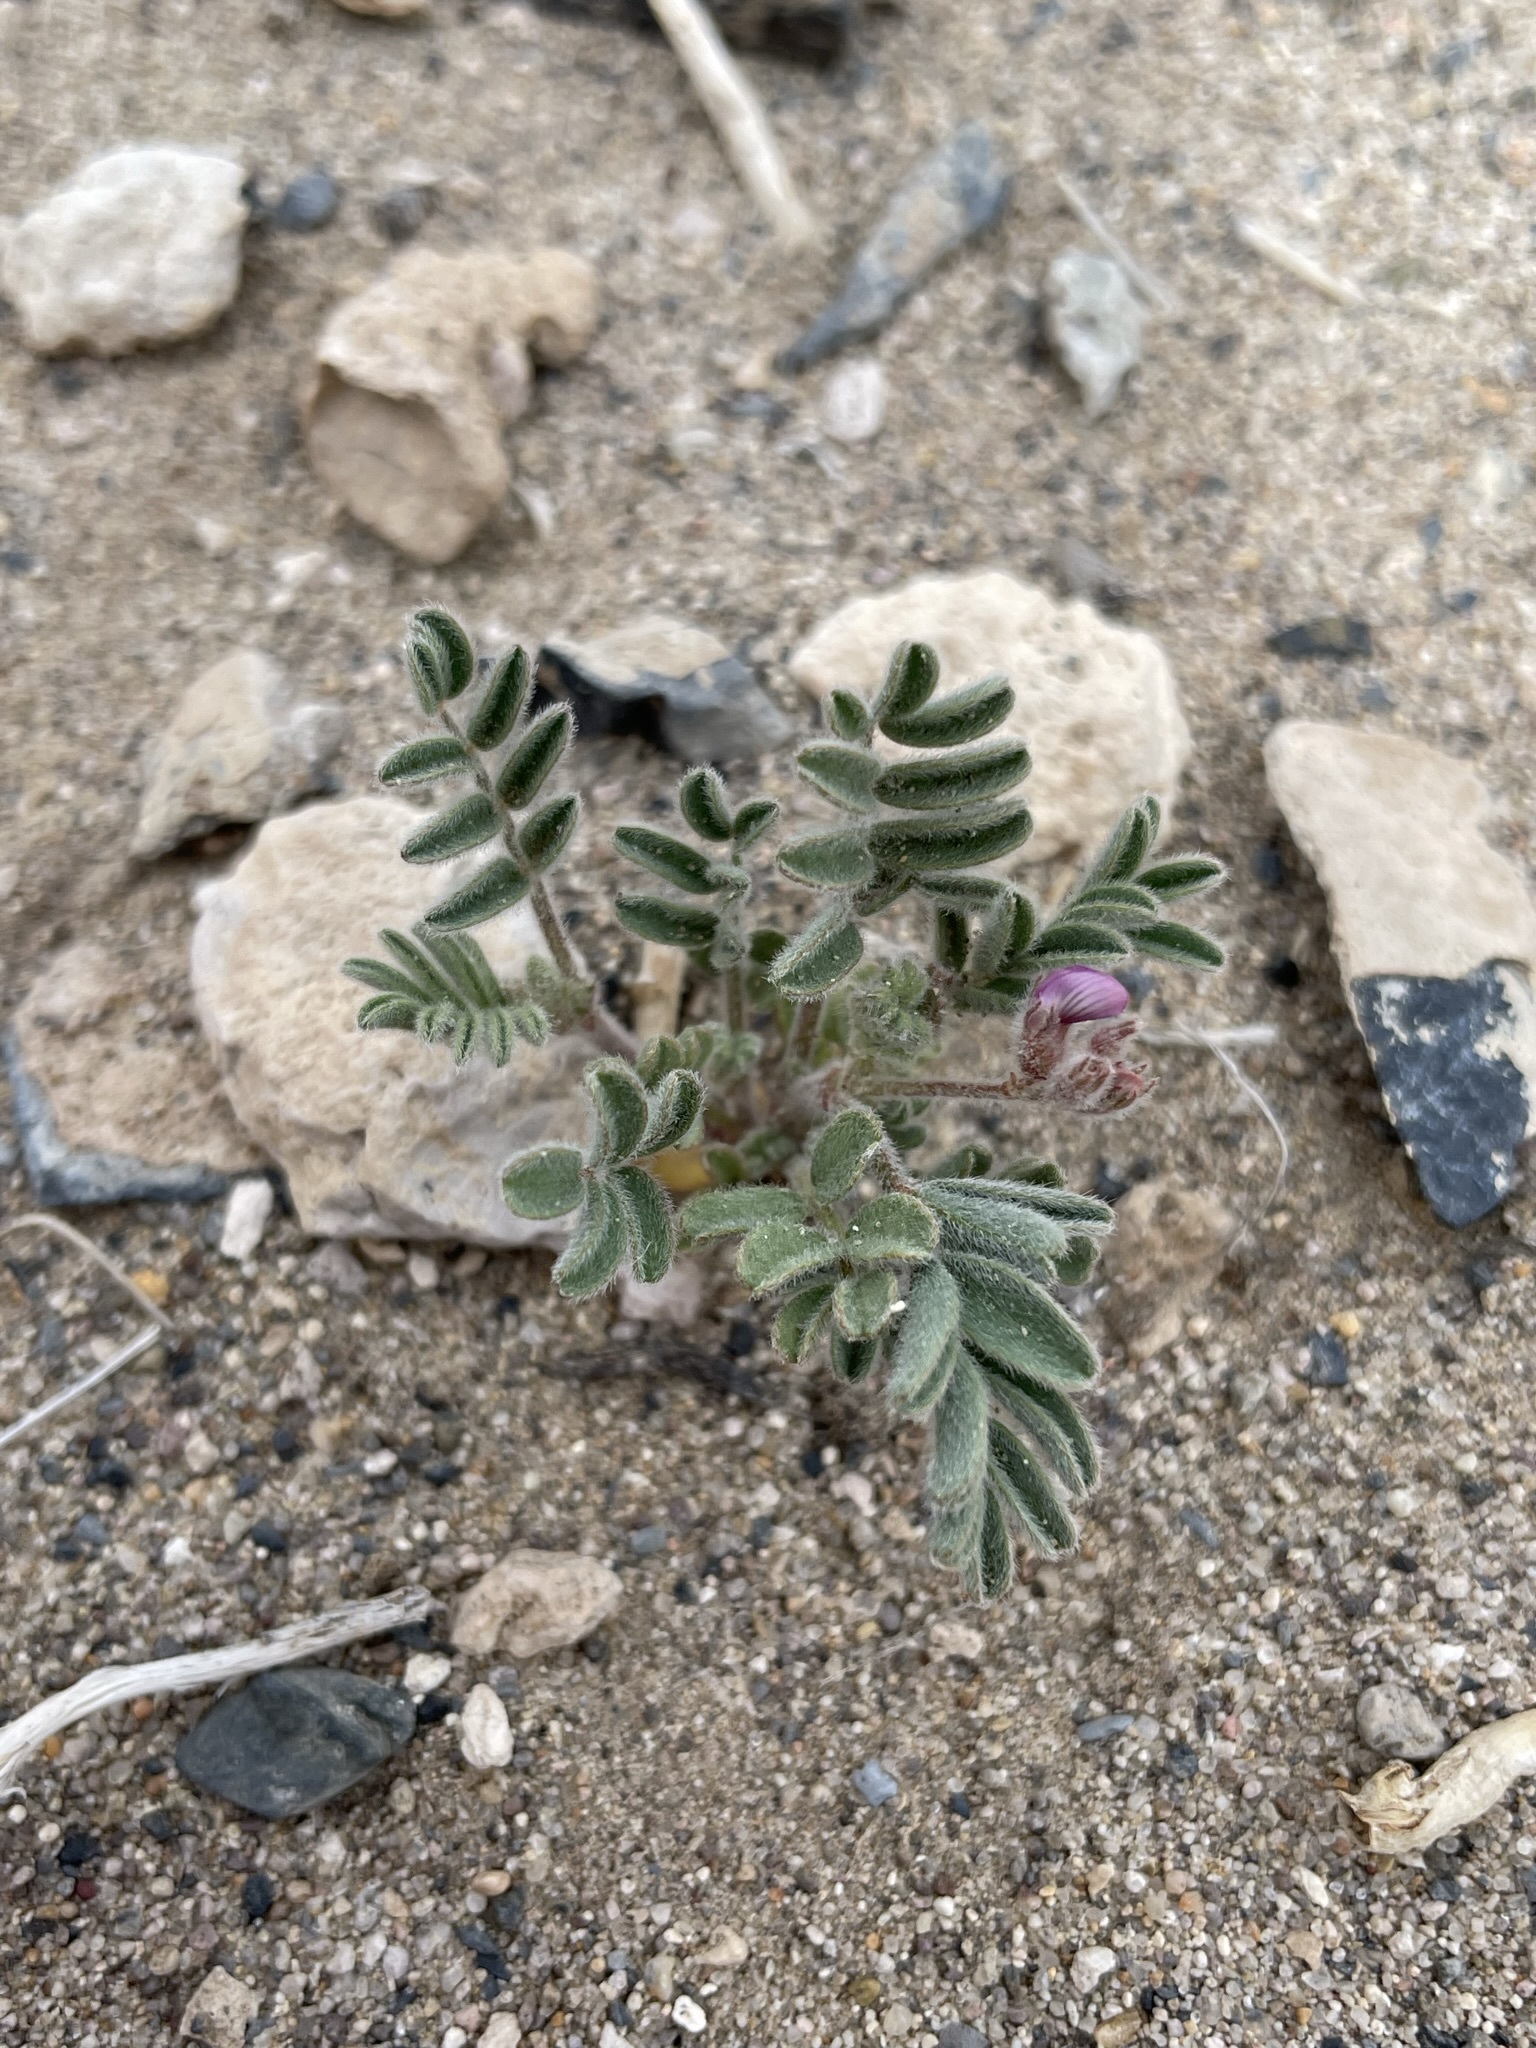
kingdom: Plantae
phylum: Tracheophyta
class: Magnoliopsida
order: Fabales
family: Fabaceae
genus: Astragalus
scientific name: Astragalus sabulonum
